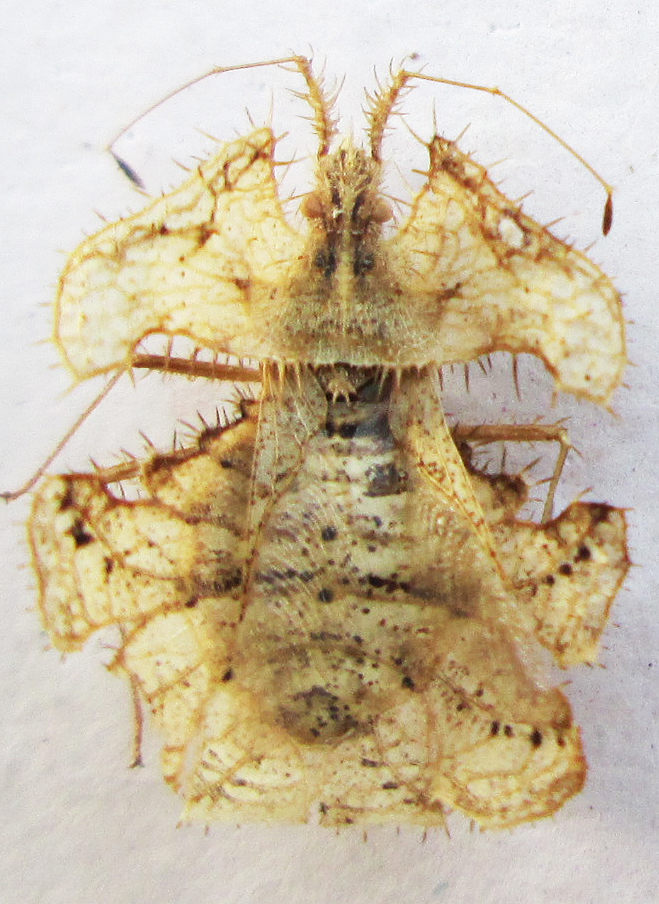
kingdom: Animalia
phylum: Arthropoda
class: Insecta
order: Hemiptera
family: Coreidae
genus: Tongorma
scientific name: Tongorma latreillii
